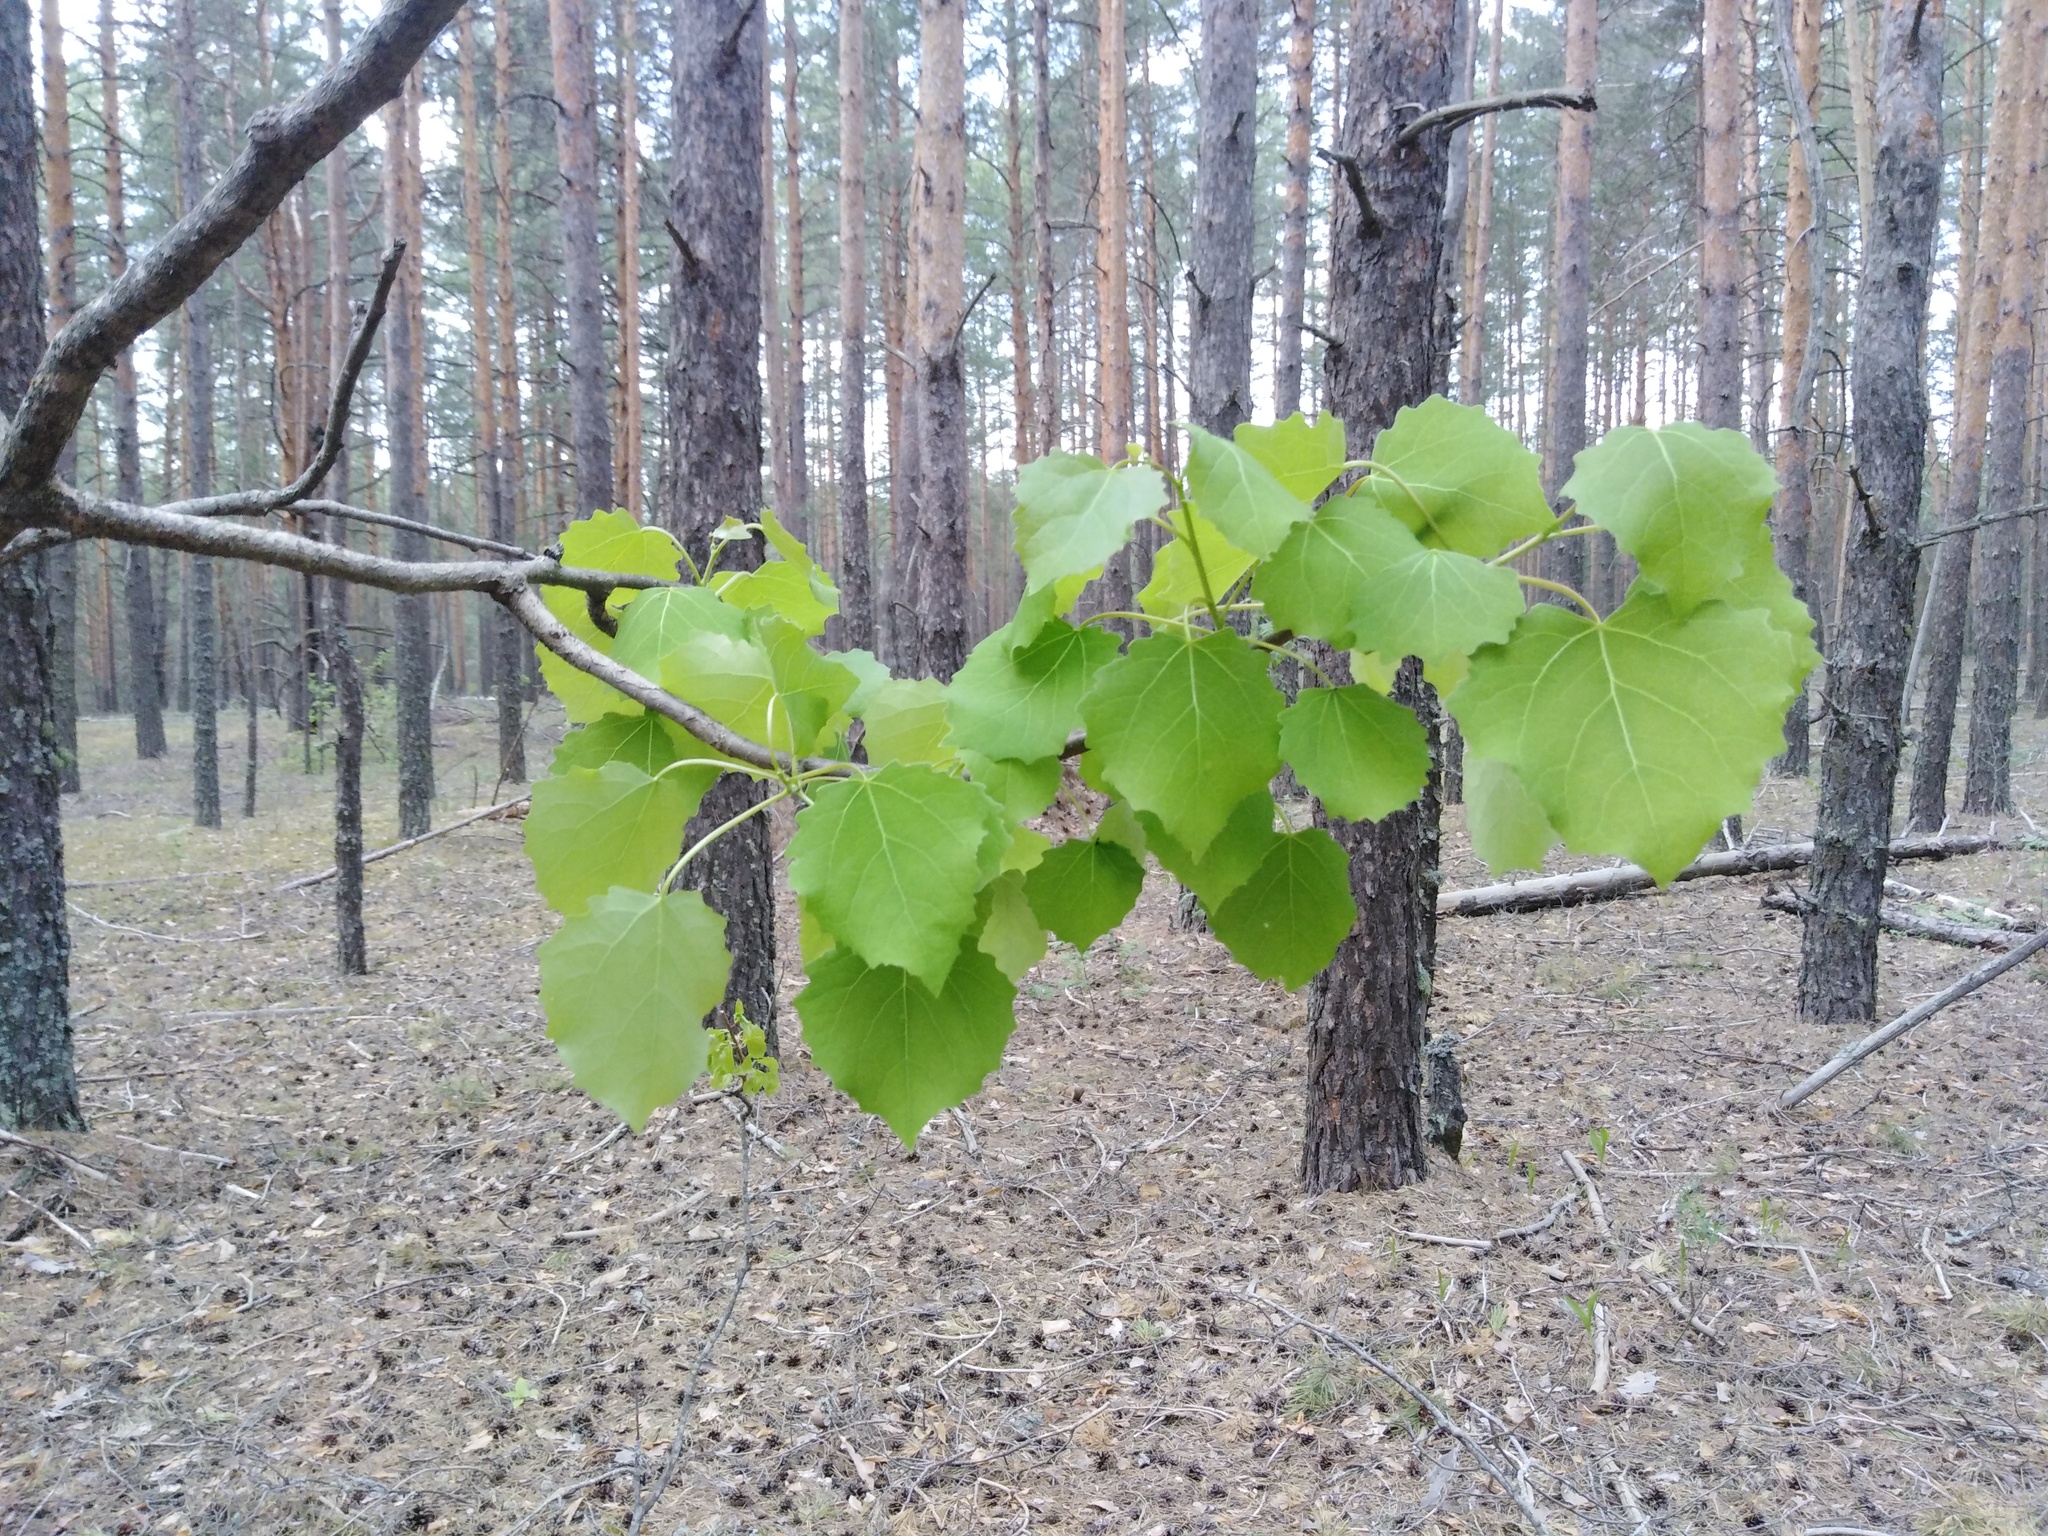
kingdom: Plantae
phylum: Tracheophyta
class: Magnoliopsida
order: Malpighiales
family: Salicaceae
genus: Populus
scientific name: Populus tremula
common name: European aspen
